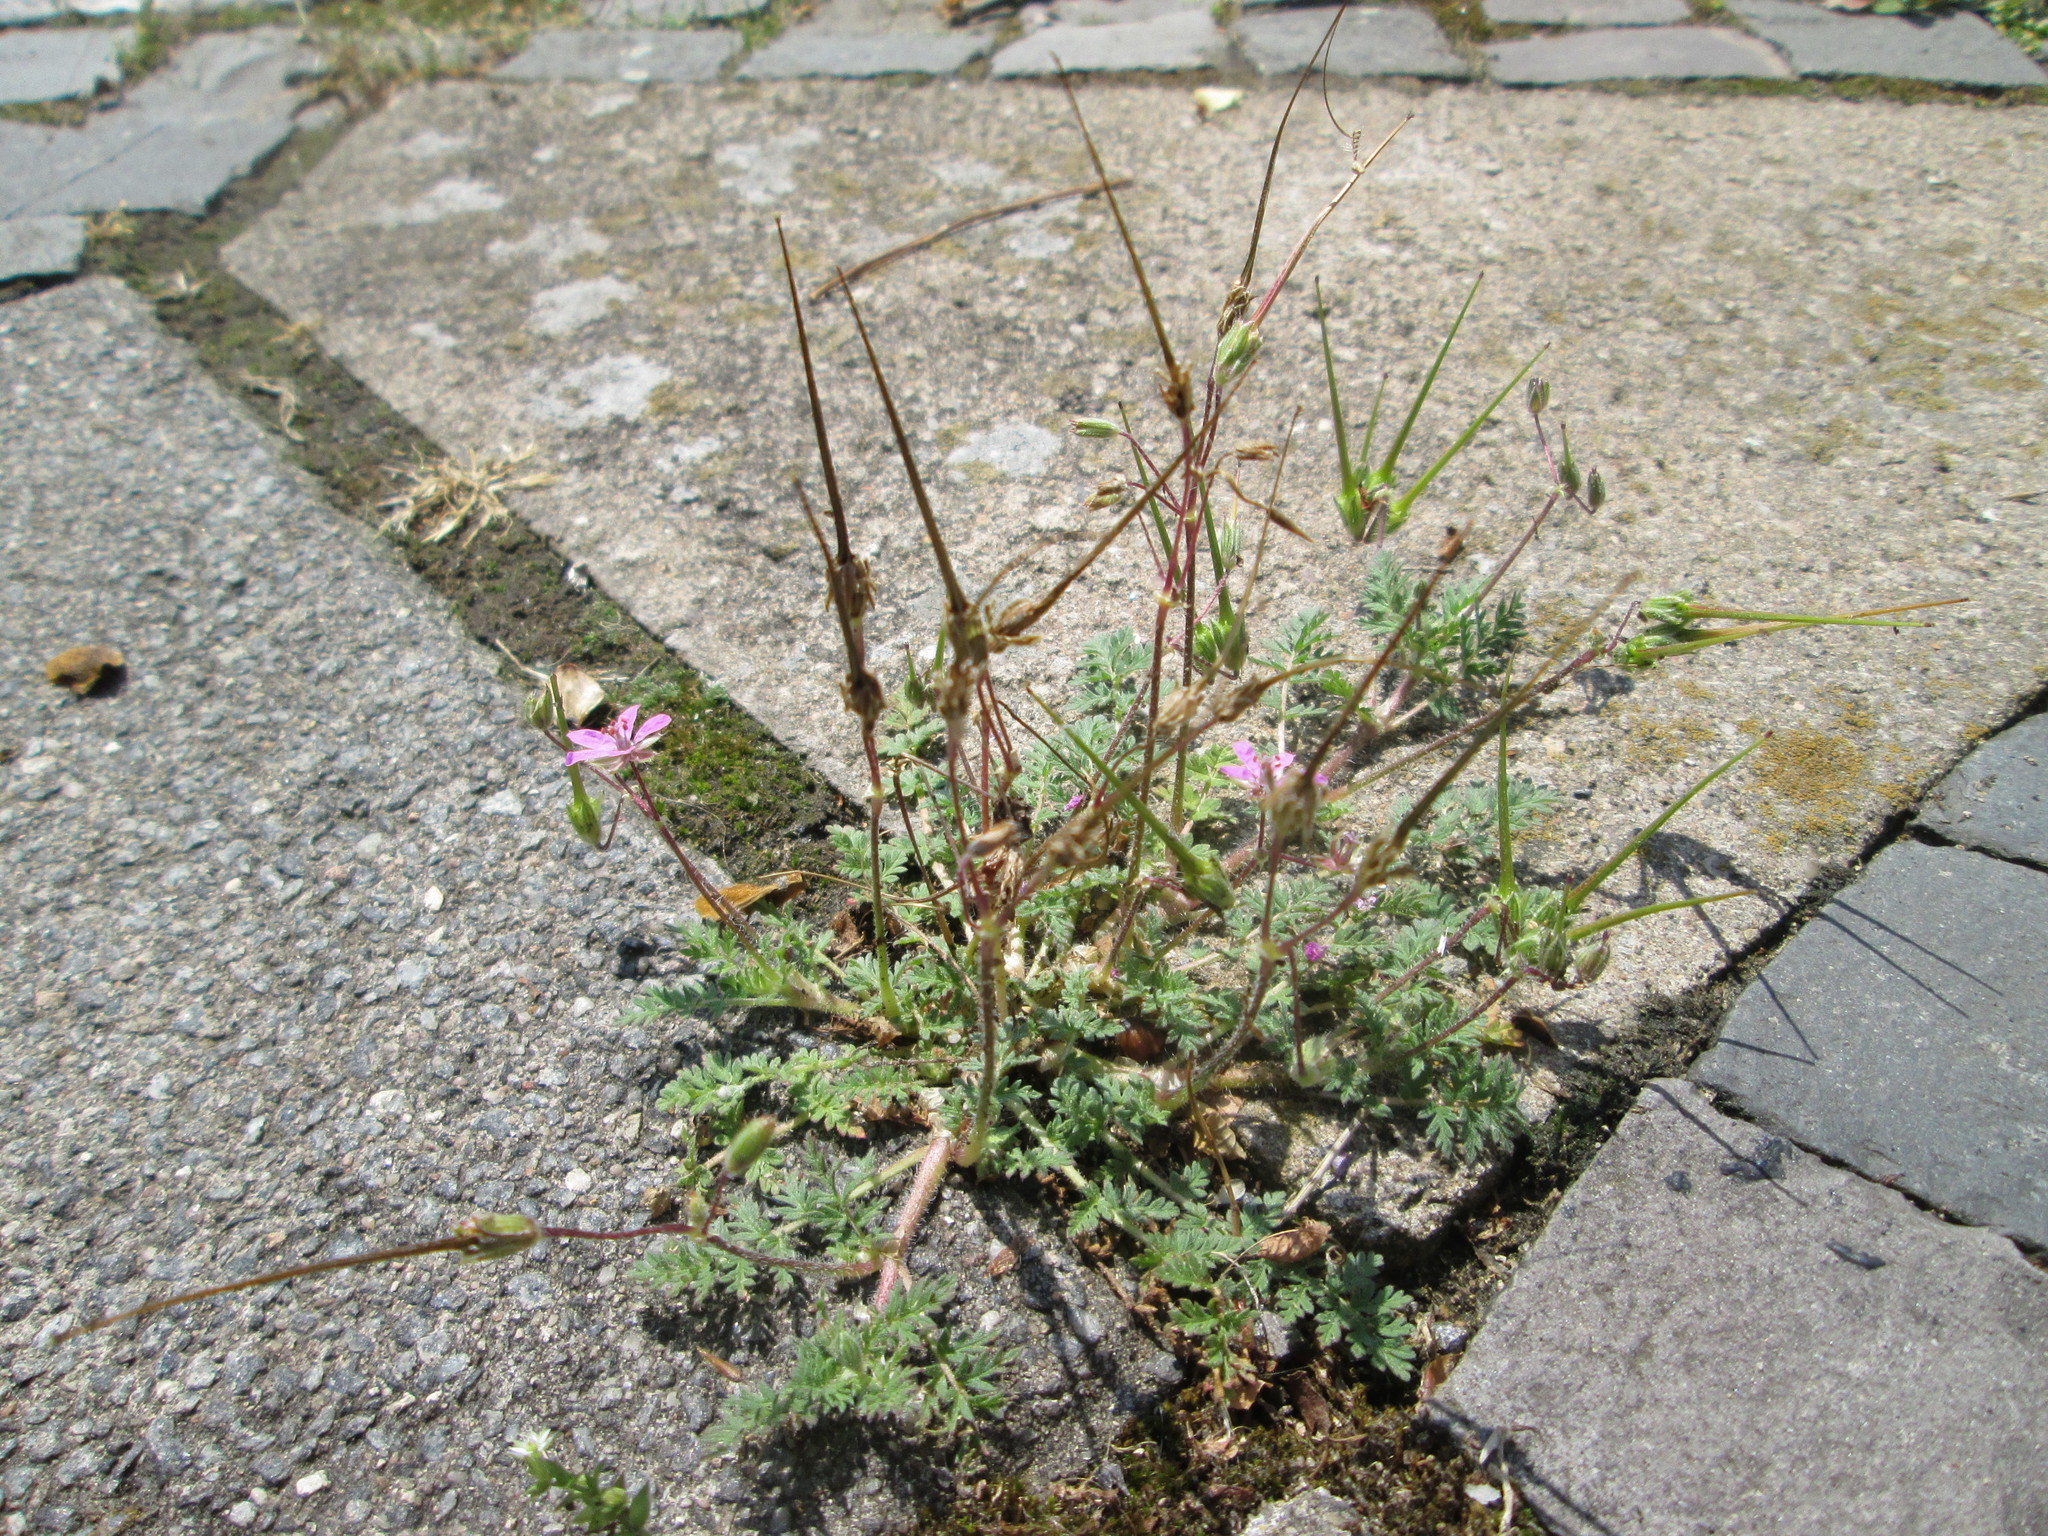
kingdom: Plantae
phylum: Tracheophyta
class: Magnoliopsida
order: Geraniales
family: Geraniaceae
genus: Erodium
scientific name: Erodium cicutarium
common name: Common stork's-bill
